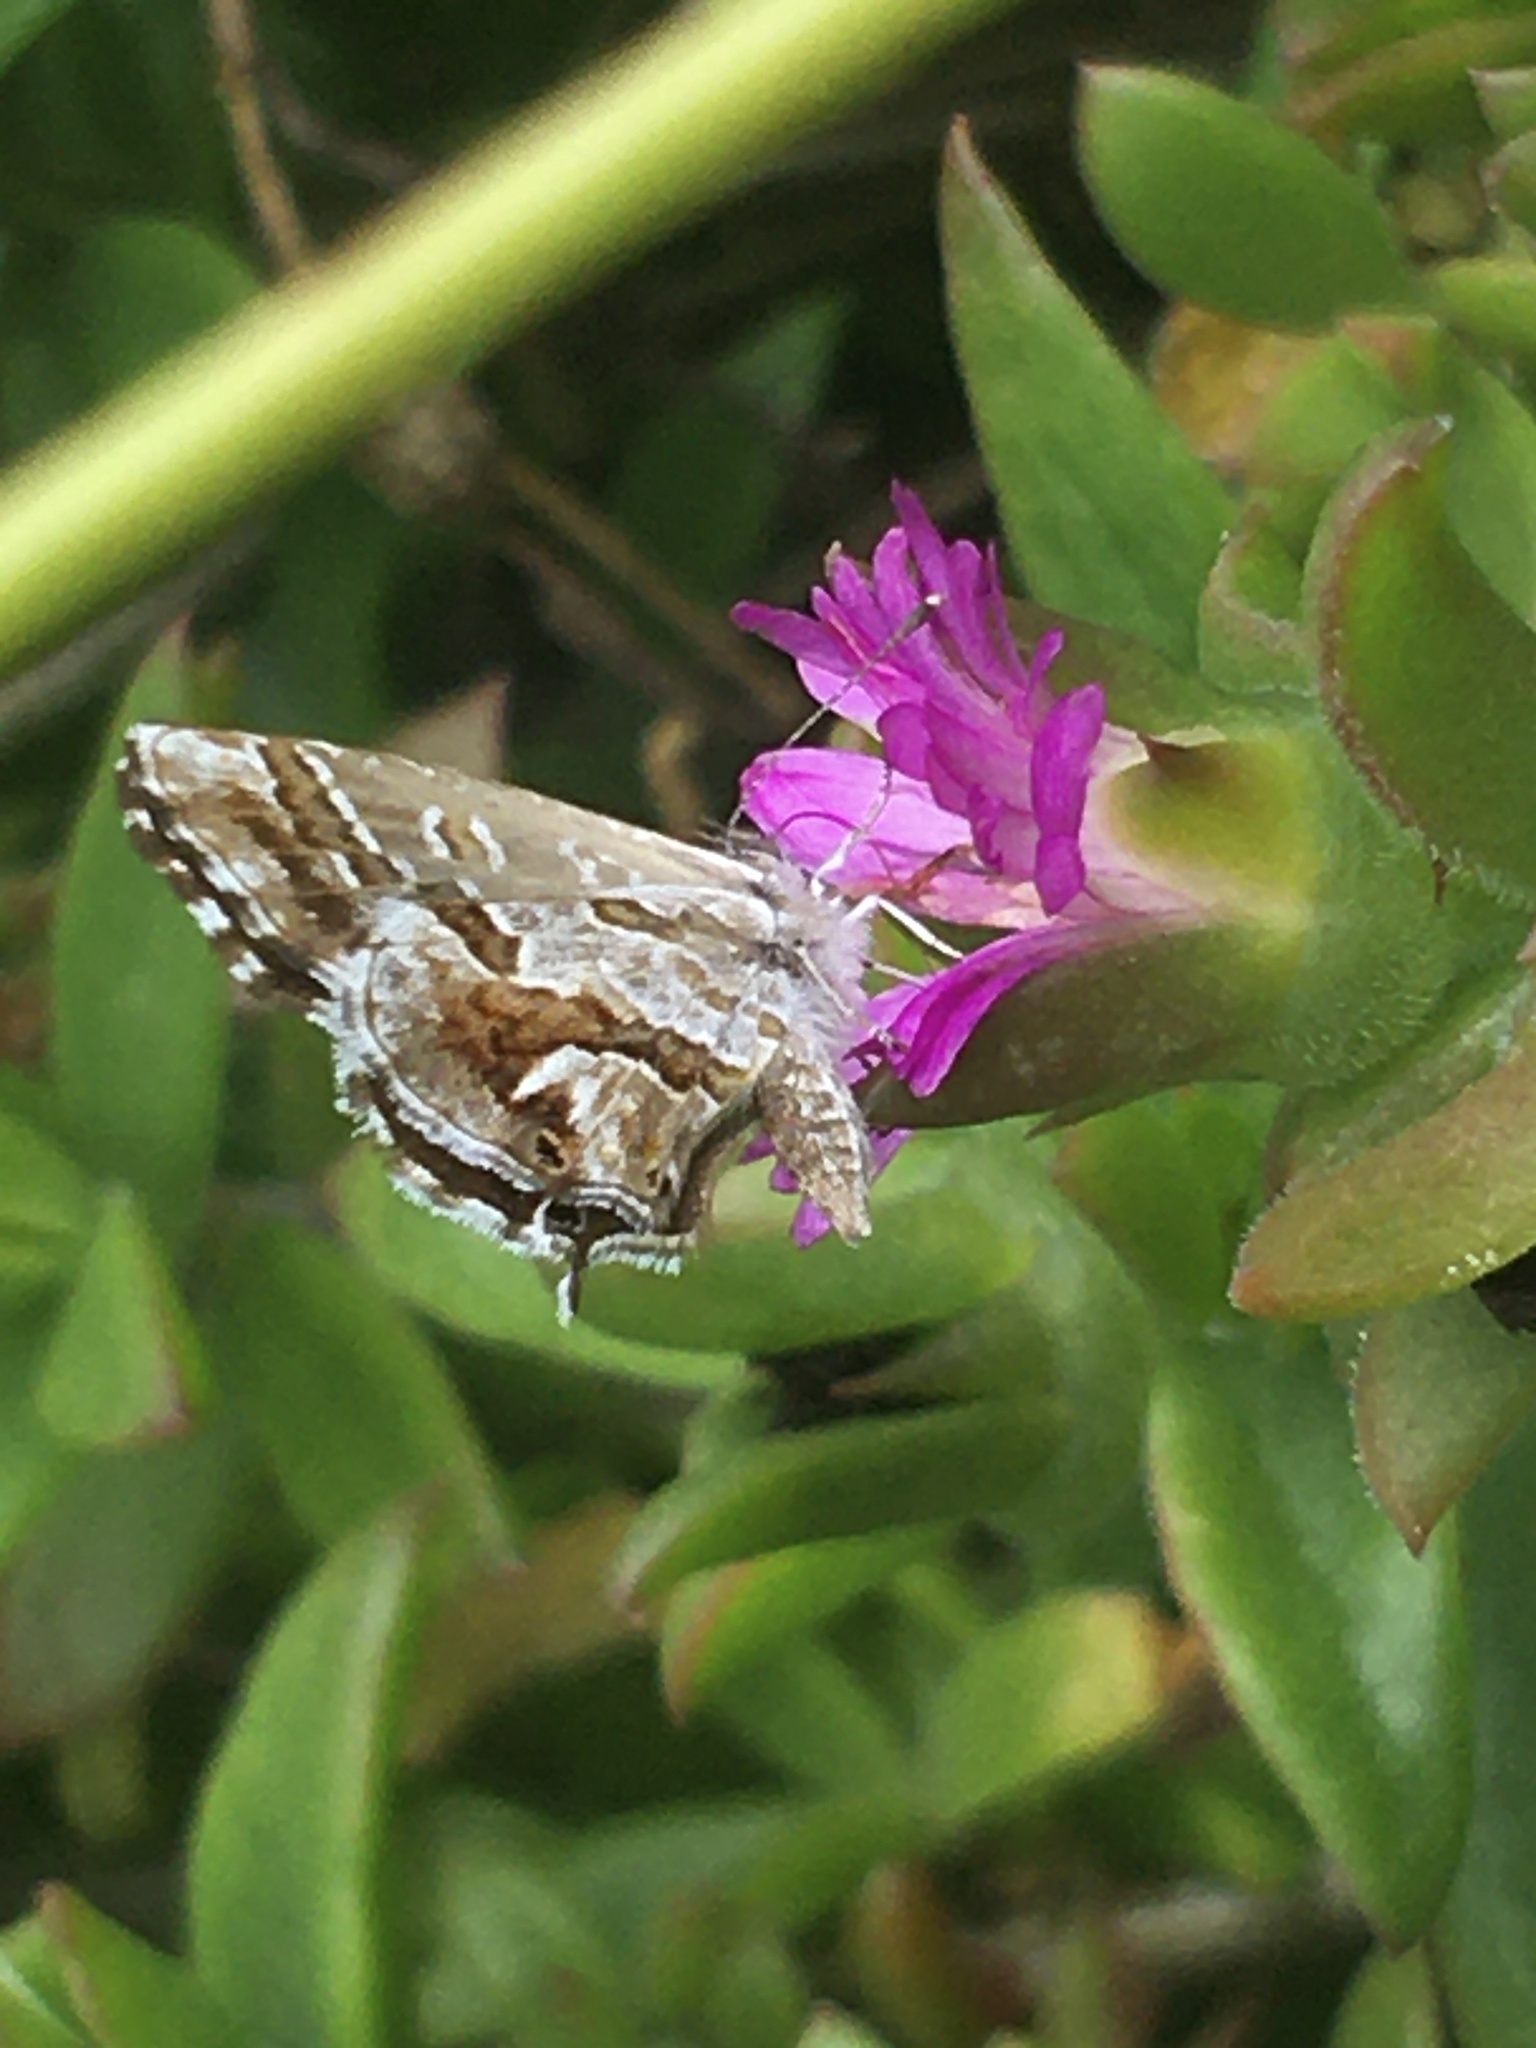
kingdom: Animalia
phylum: Arthropoda
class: Insecta
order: Lepidoptera
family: Lycaenidae
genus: Cacyreus
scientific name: Cacyreus marshalli
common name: Geranium bronze
